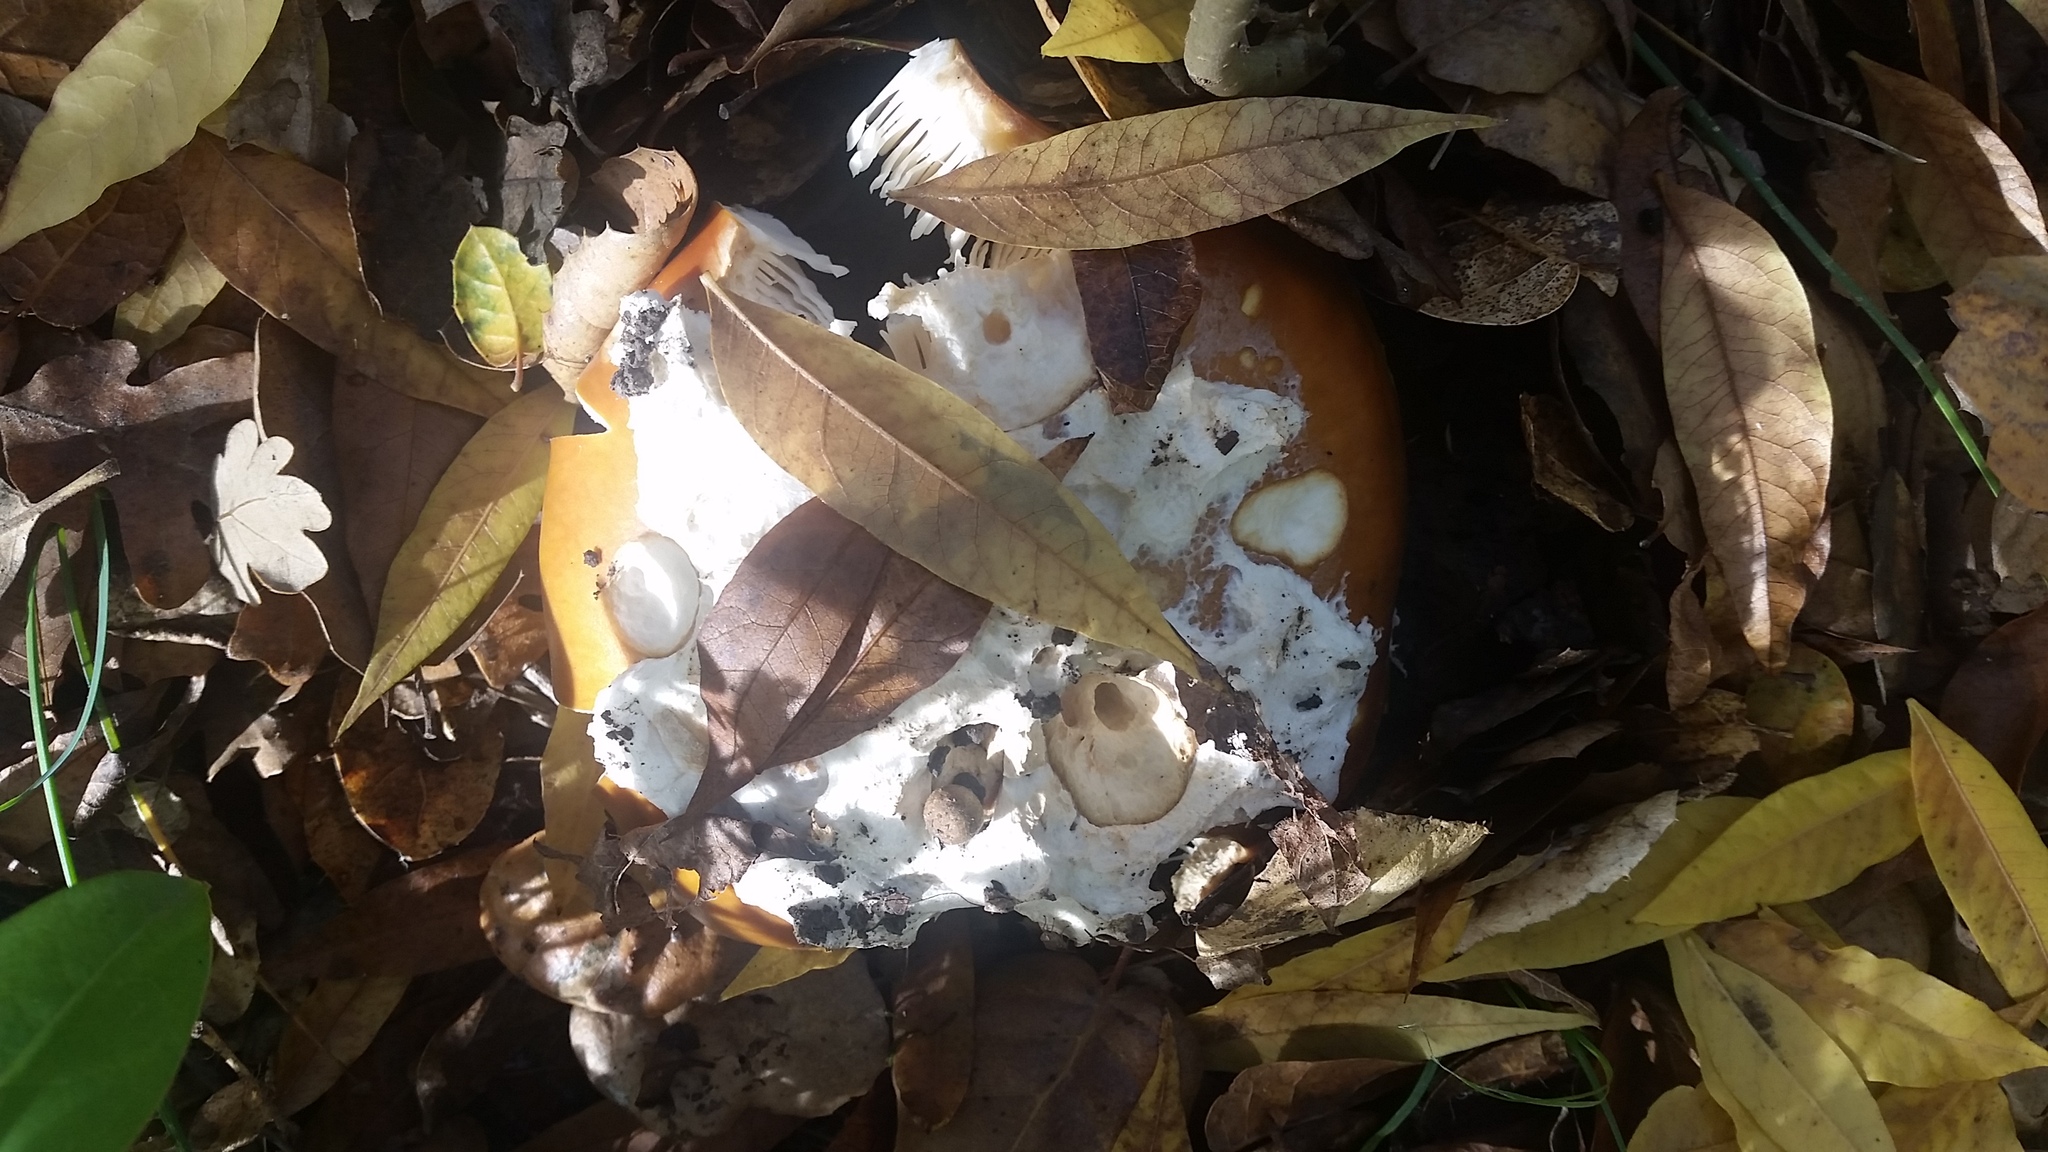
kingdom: Fungi
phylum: Basidiomycota
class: Agaricomycetes
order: Agaricales
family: Amanitaceae
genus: Amanita
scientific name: Amanita calyptroderma
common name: Coccora
